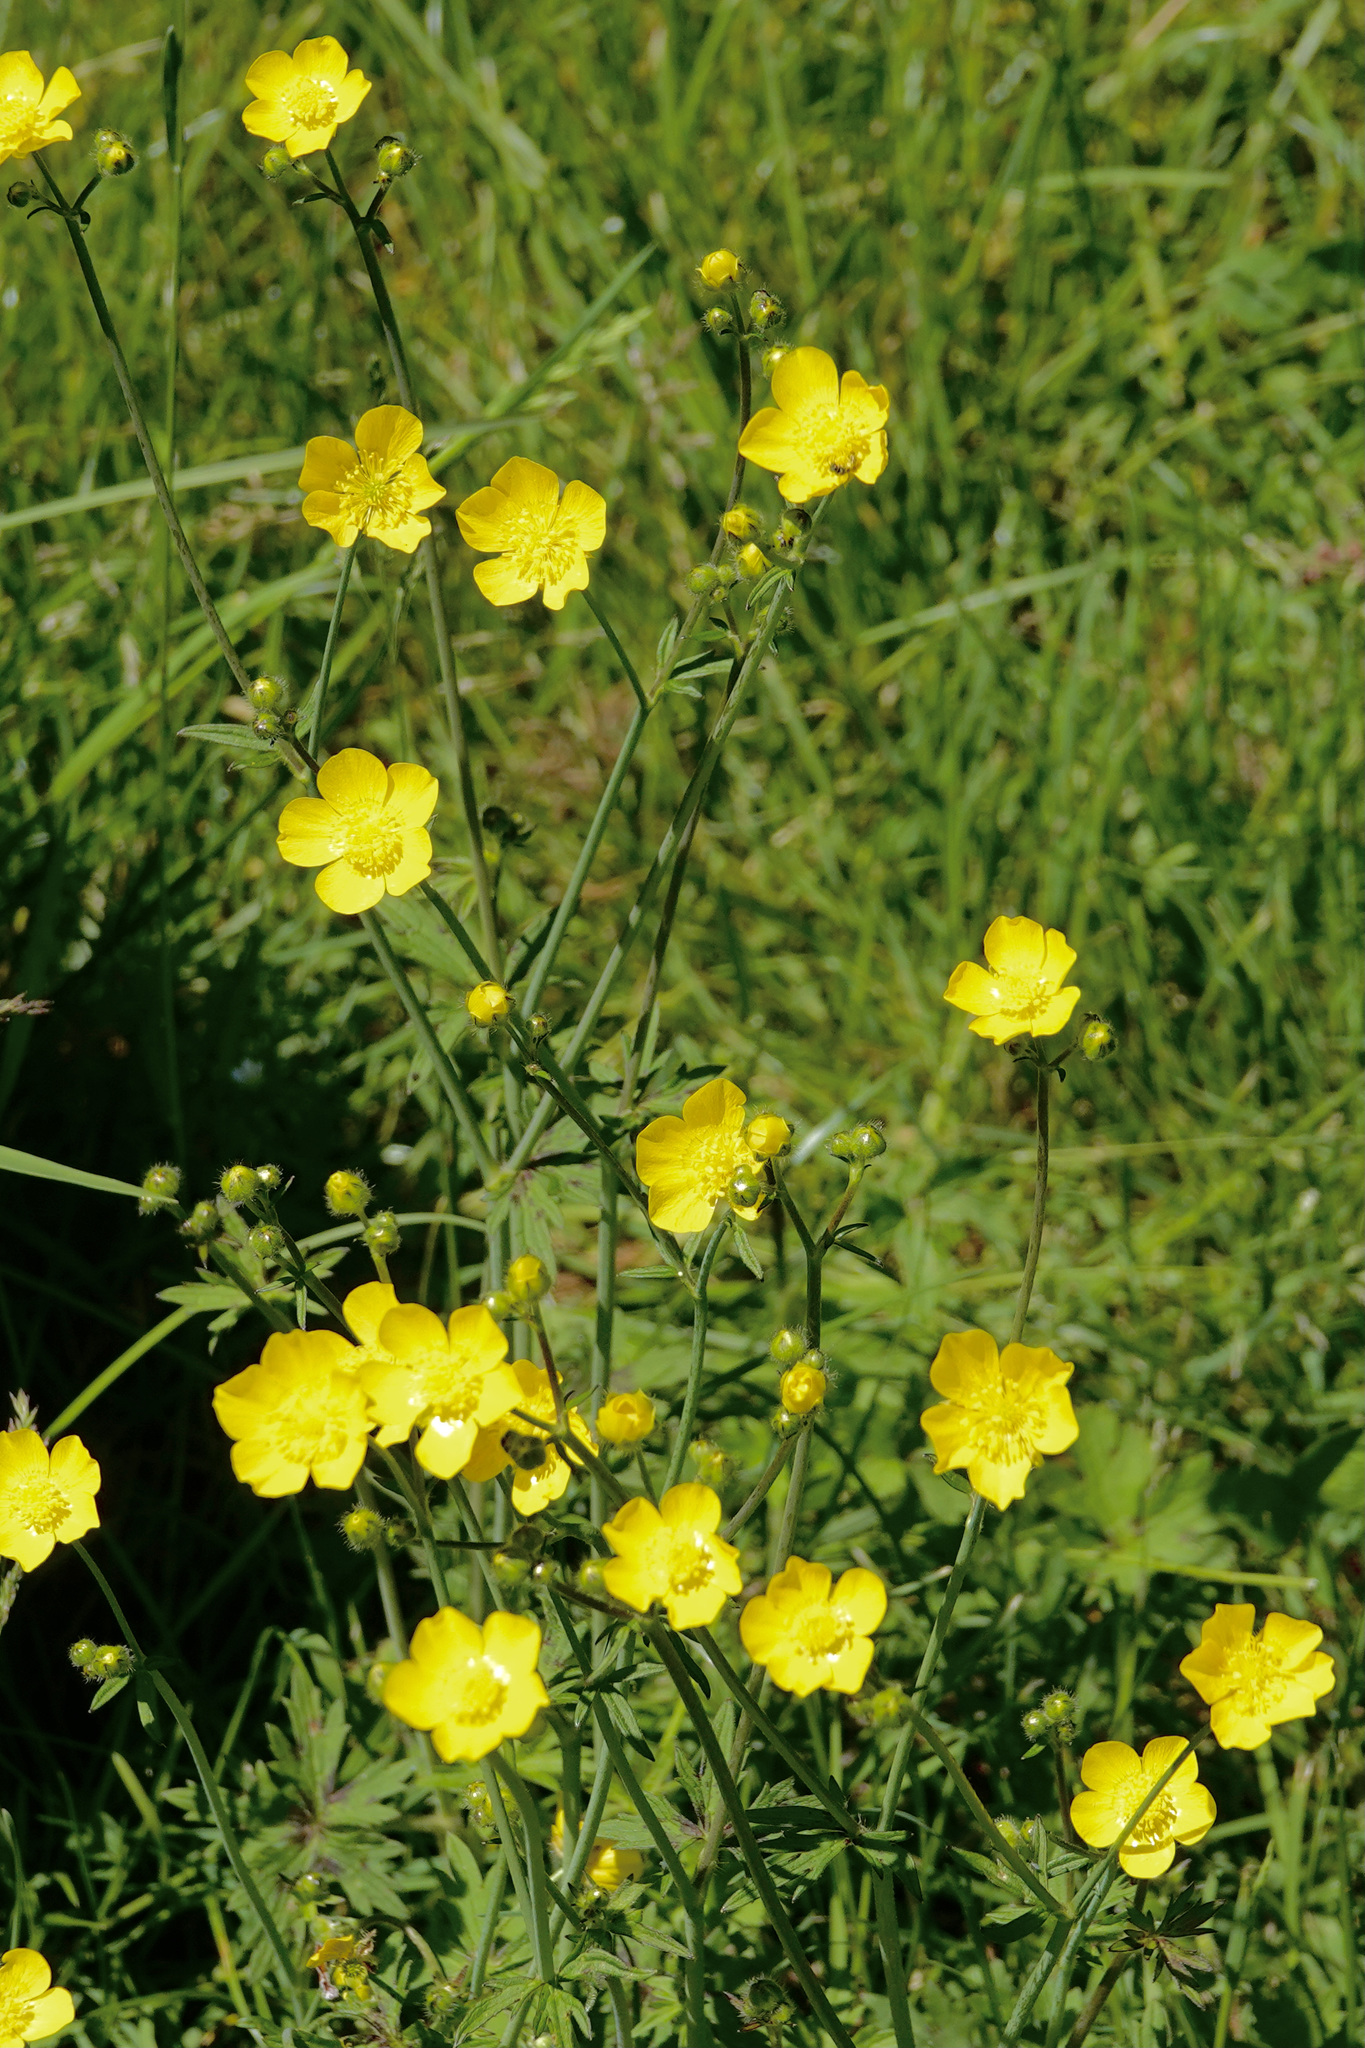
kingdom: Plantae
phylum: Tracheophyta
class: Magnoliopsida
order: Ranunculales
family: Ranunculaceae
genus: Ranunculus
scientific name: Ranunculus acris
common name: Meadow buttercup
